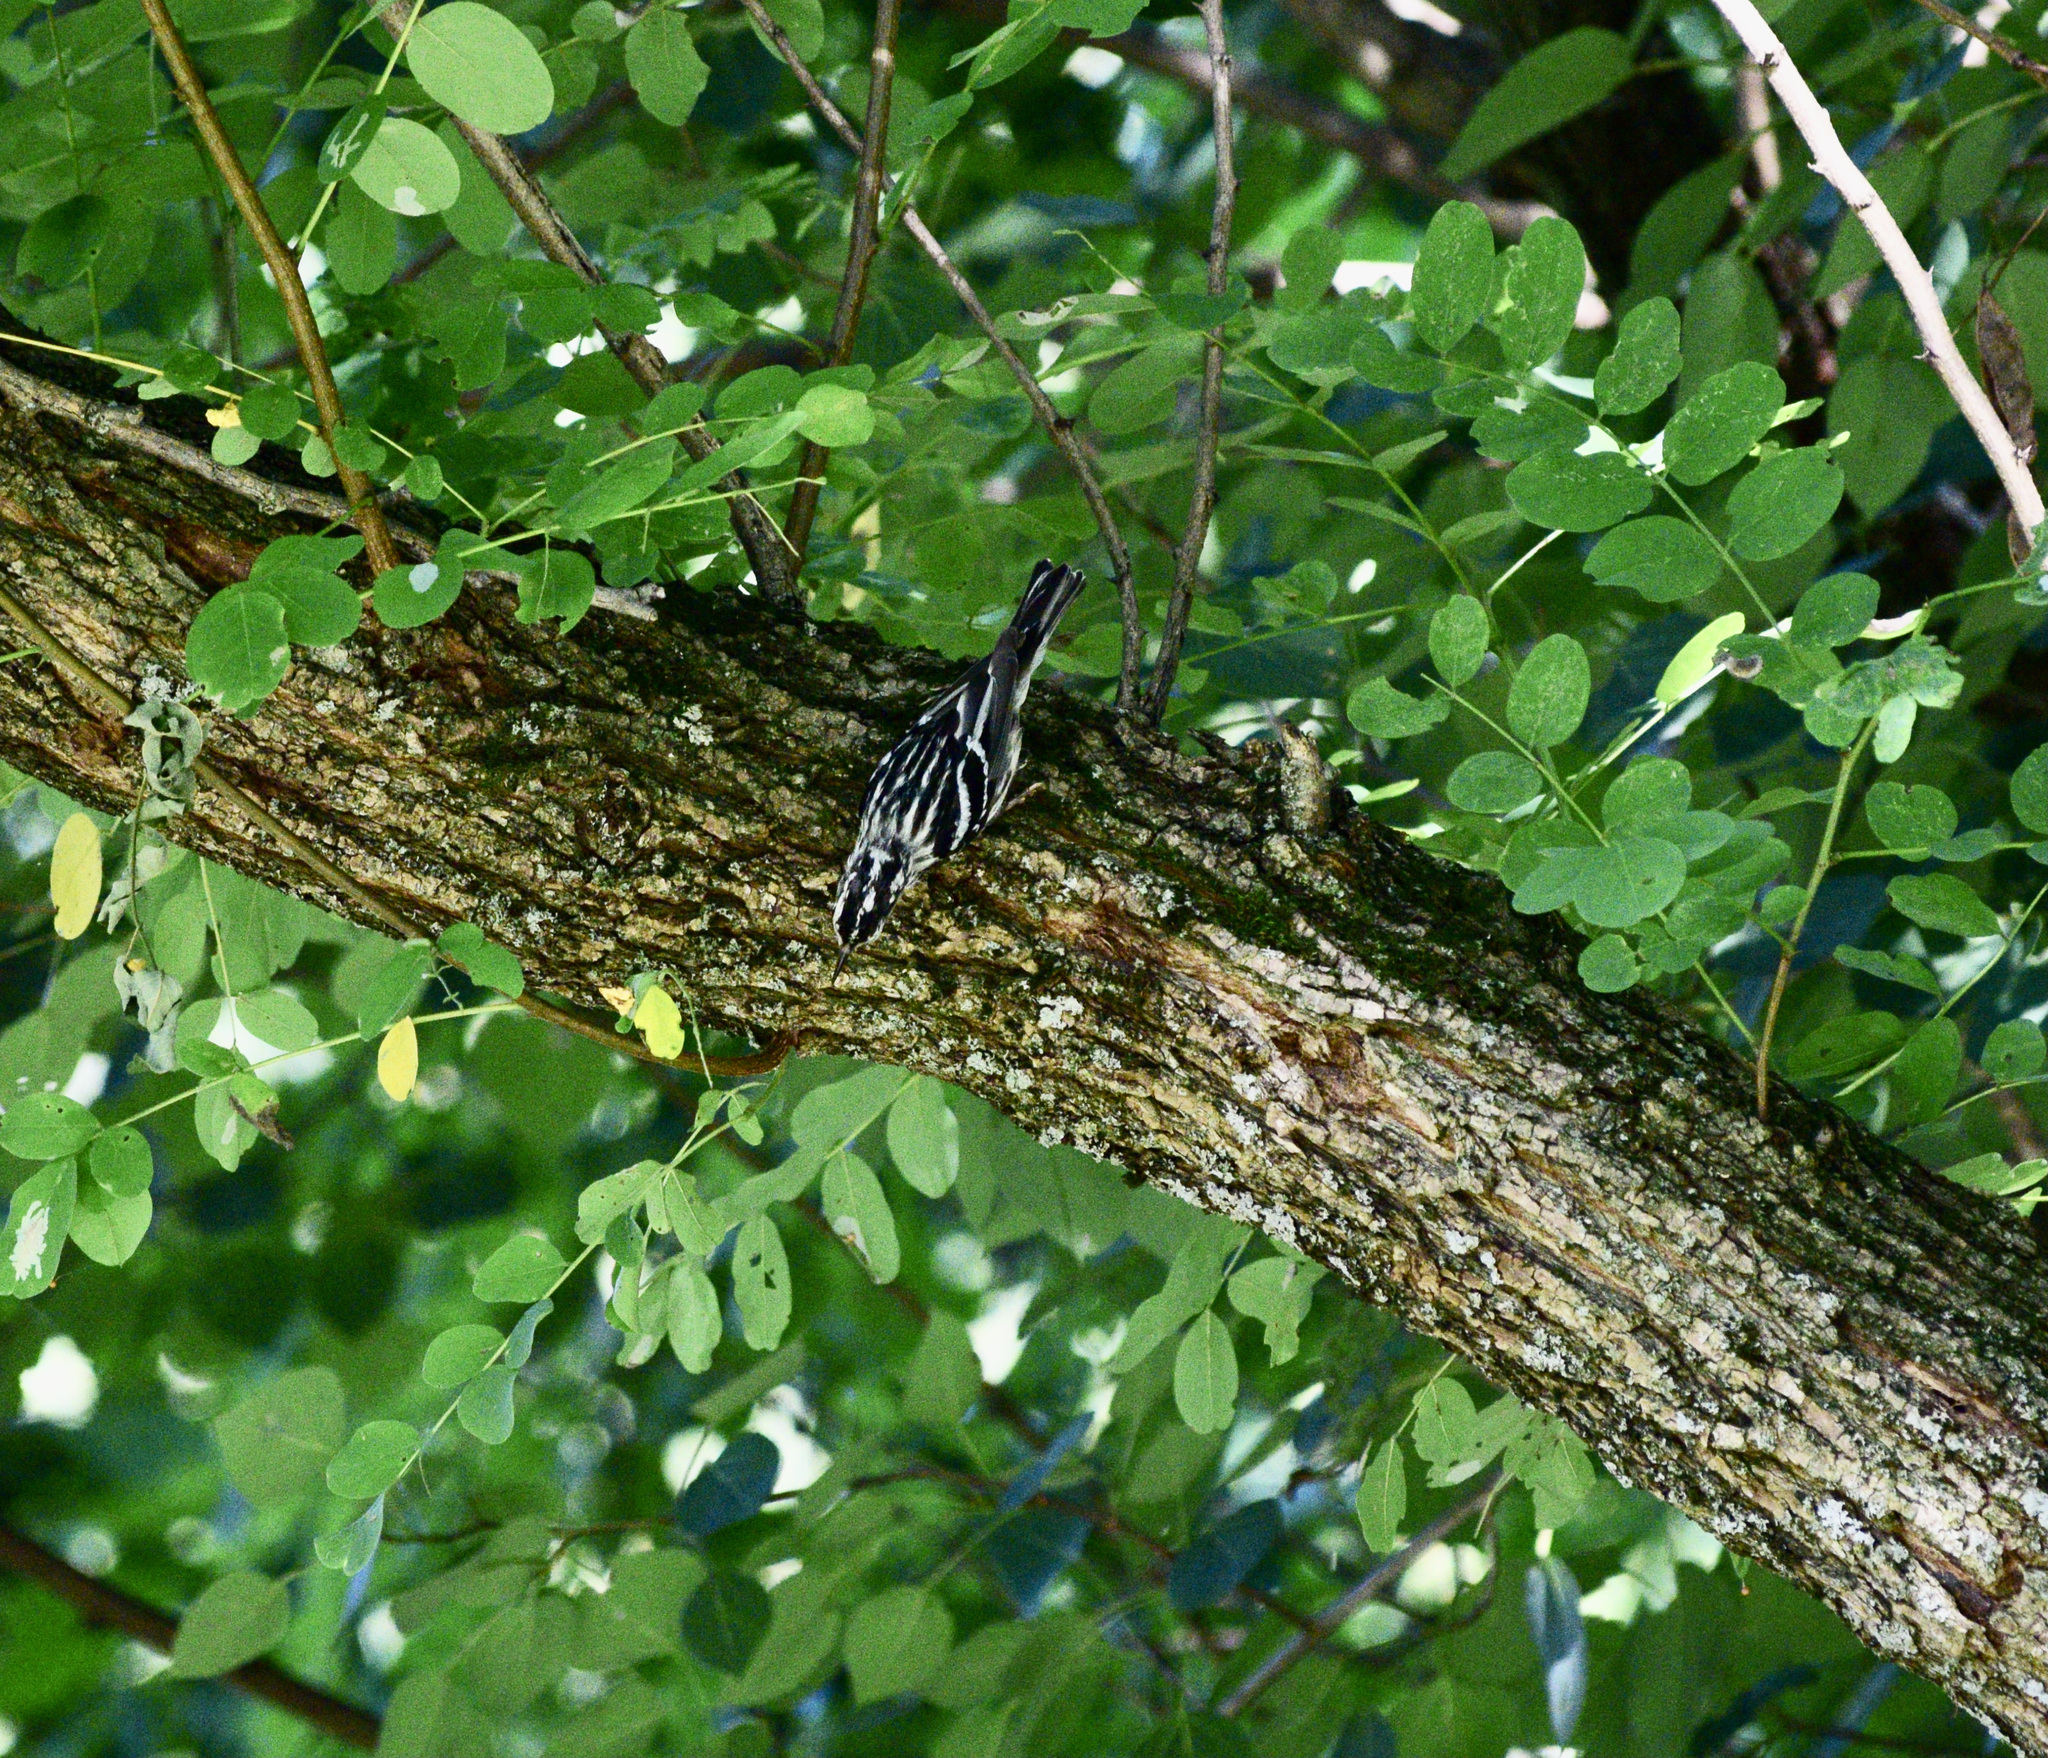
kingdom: Animalia
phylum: Chordata
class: Aves
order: Passeriformes
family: Parulidae
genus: Mniotilta
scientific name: Mniotilta varia
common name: Black-and-white warbler
